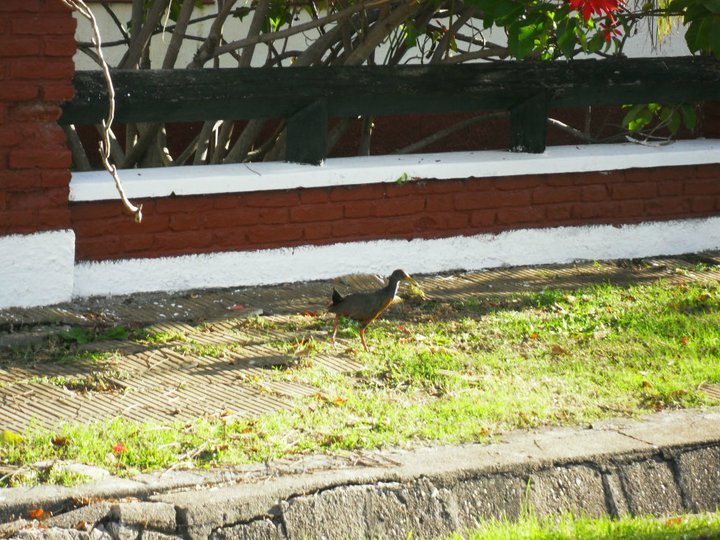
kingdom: Animalia
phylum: Chordata
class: Aves
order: Gruiformes
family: Rallidae
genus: Aramides
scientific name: Aramides cajanea
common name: Gray-necked wood-rail
